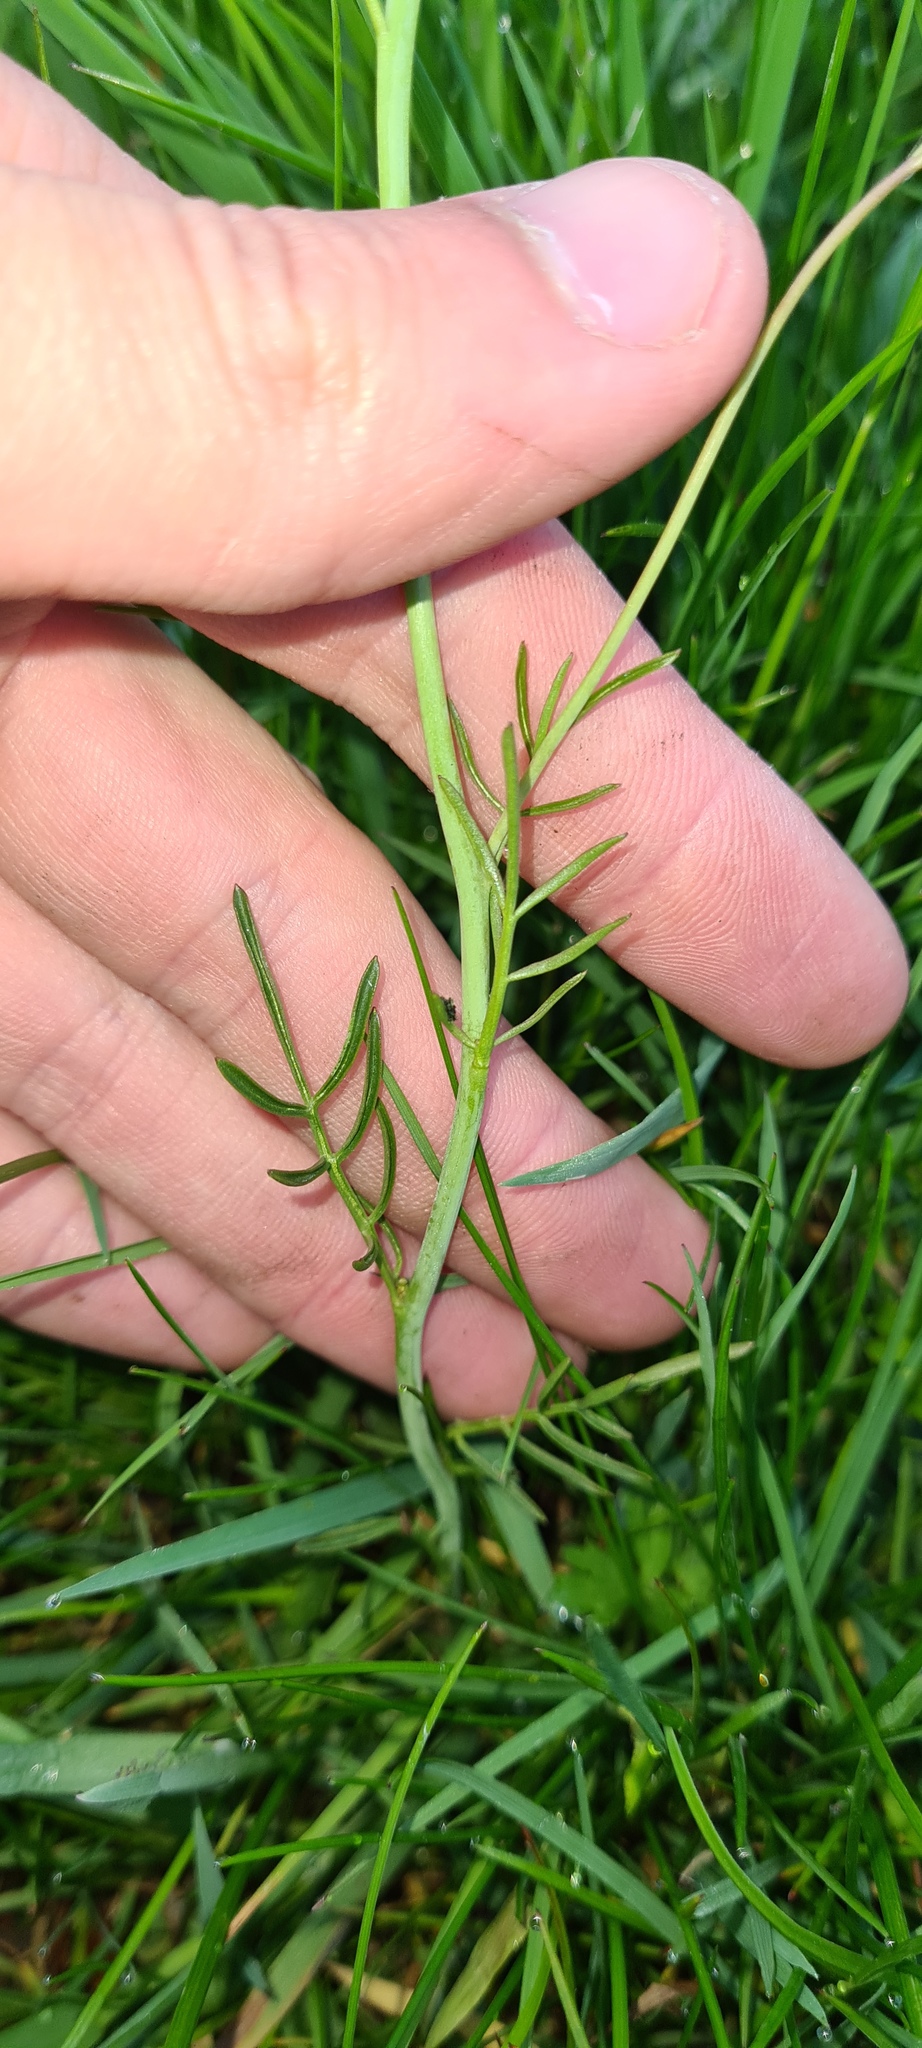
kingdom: Plantae
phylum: Tracheophyta
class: Magnoliopsida
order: Brassicales
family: Brassicaceae
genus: Cardamine
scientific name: Cardamine pratensis
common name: Cuckoo flower
